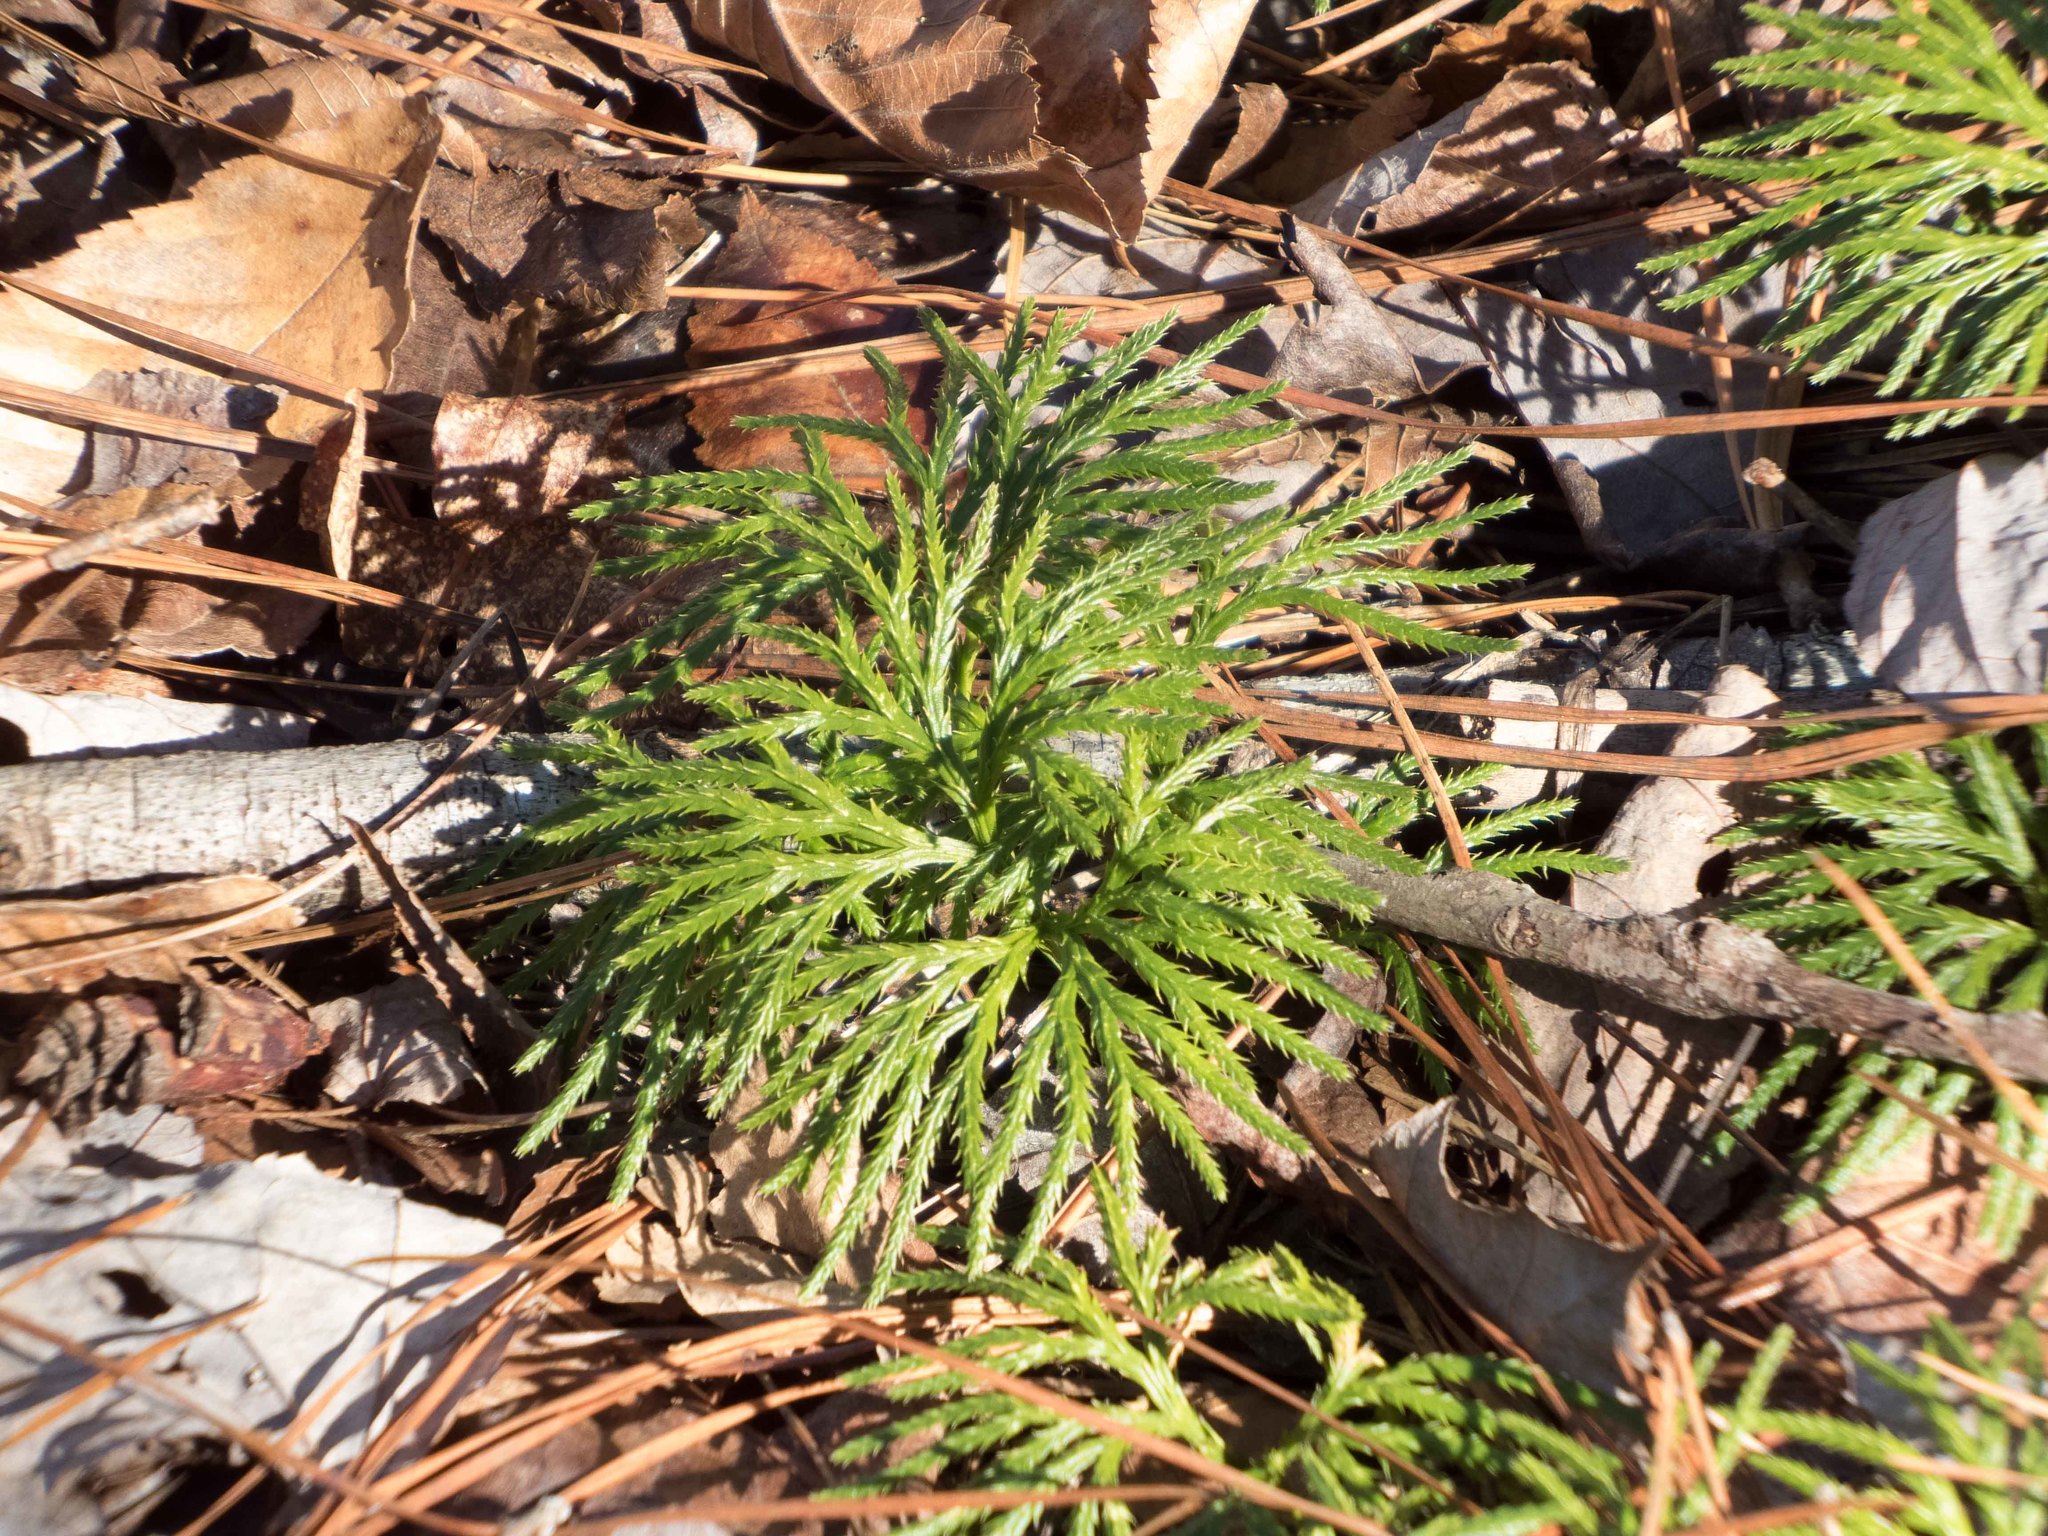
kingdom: Plantae
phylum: Tracheophyta
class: Lycopodiopsida
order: Lycopodiales
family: Lycopodiaceae
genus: Diphasiastrum
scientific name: Diphasiastrum digitatum
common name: Southern running-pine
